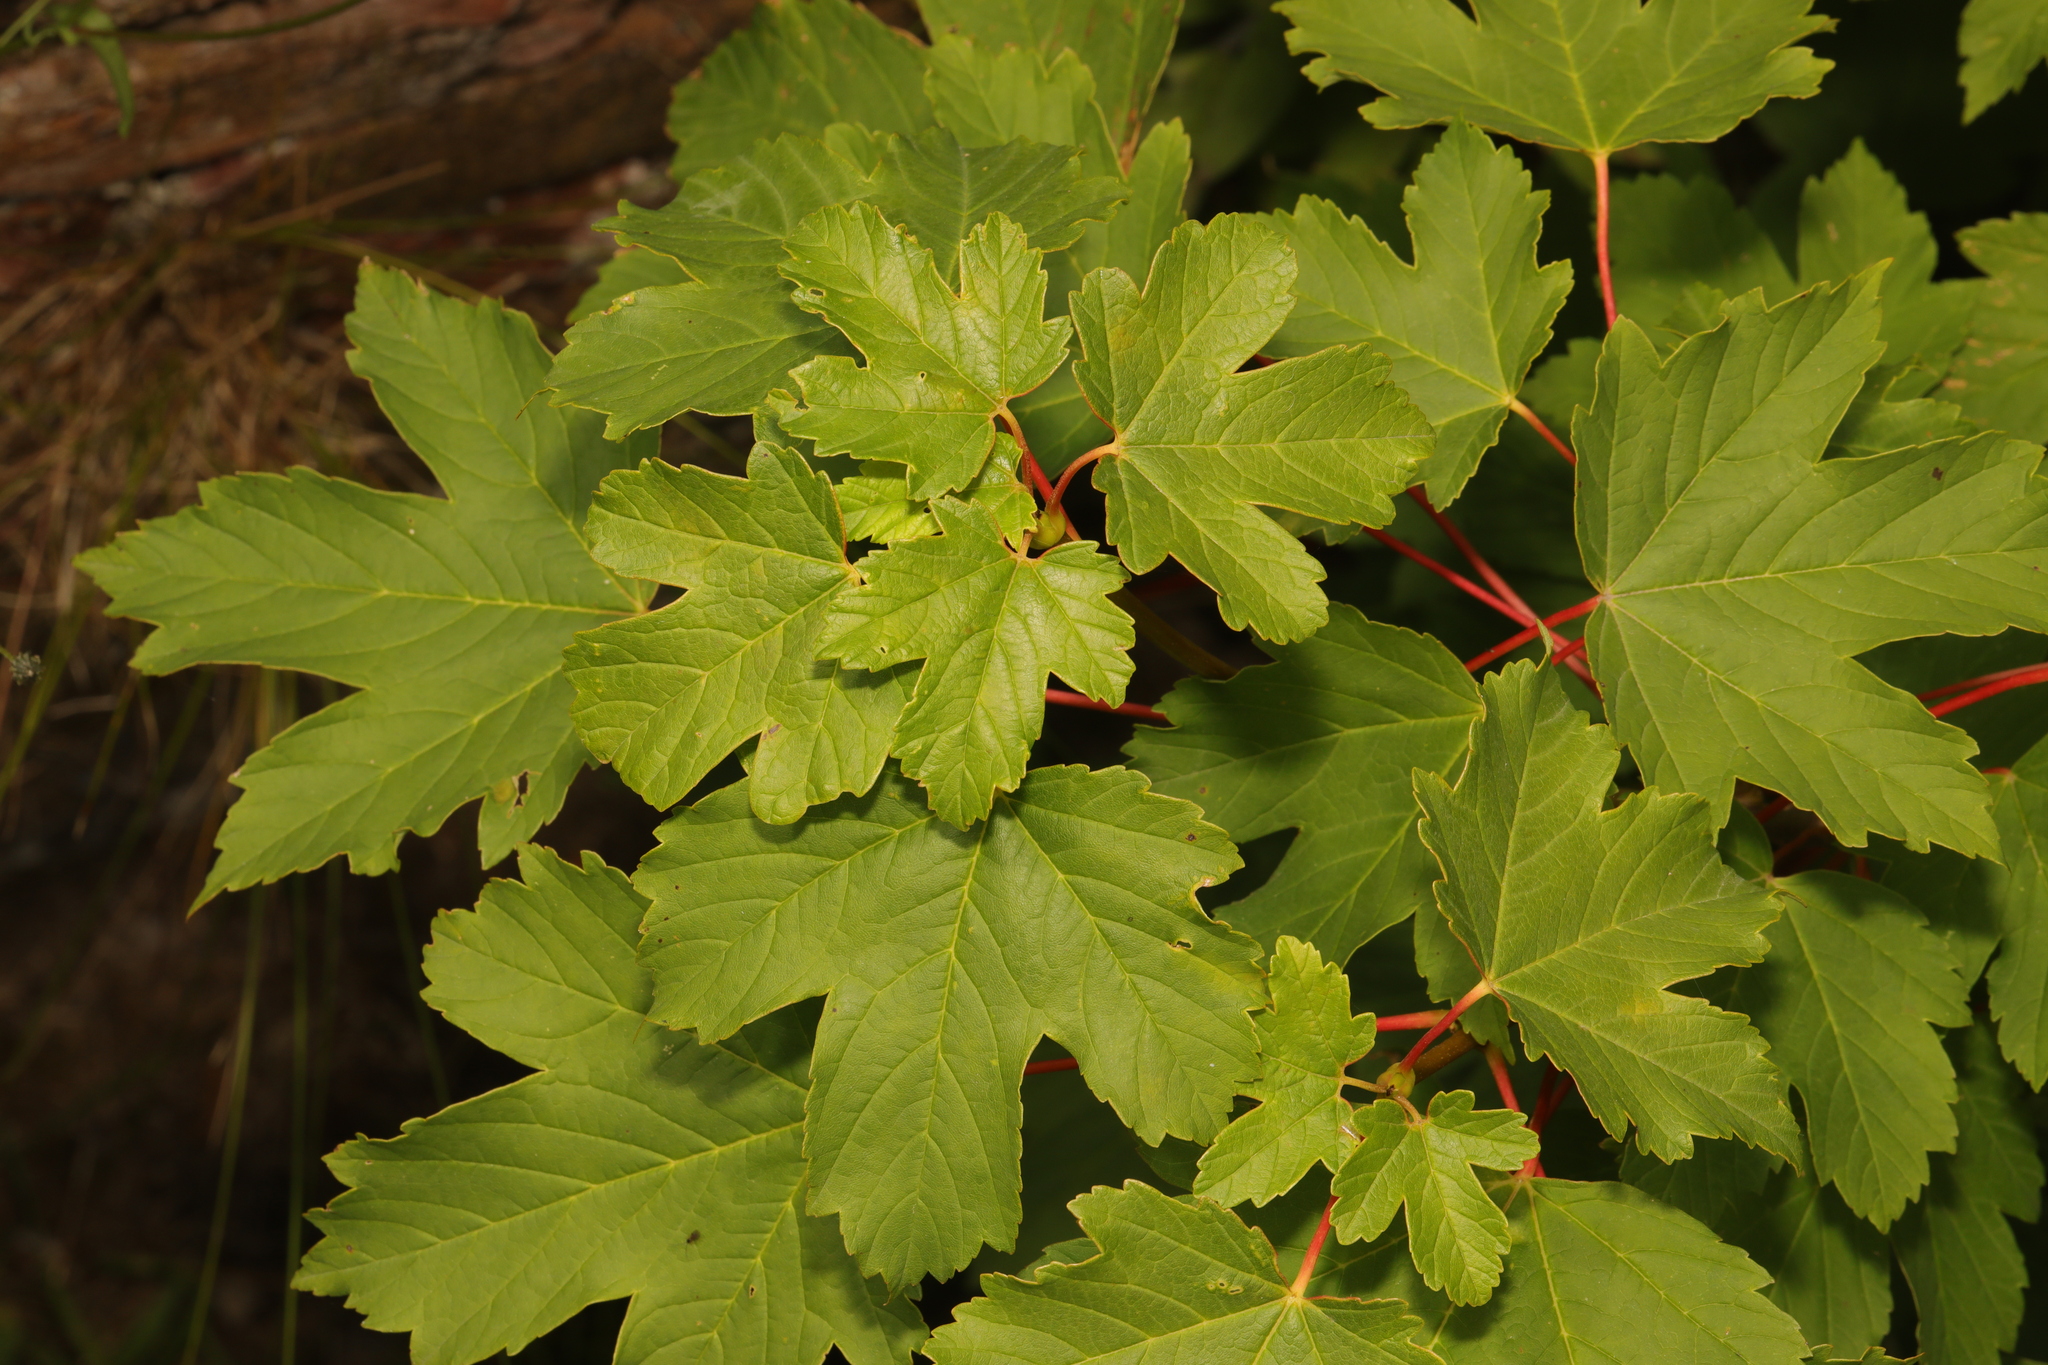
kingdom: Plantae
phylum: Tracheophyta
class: Magnoliopsida
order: Sapindales
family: Sapindaceae
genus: Acer
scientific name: Acer pseudoplatanus
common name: Sycamore
